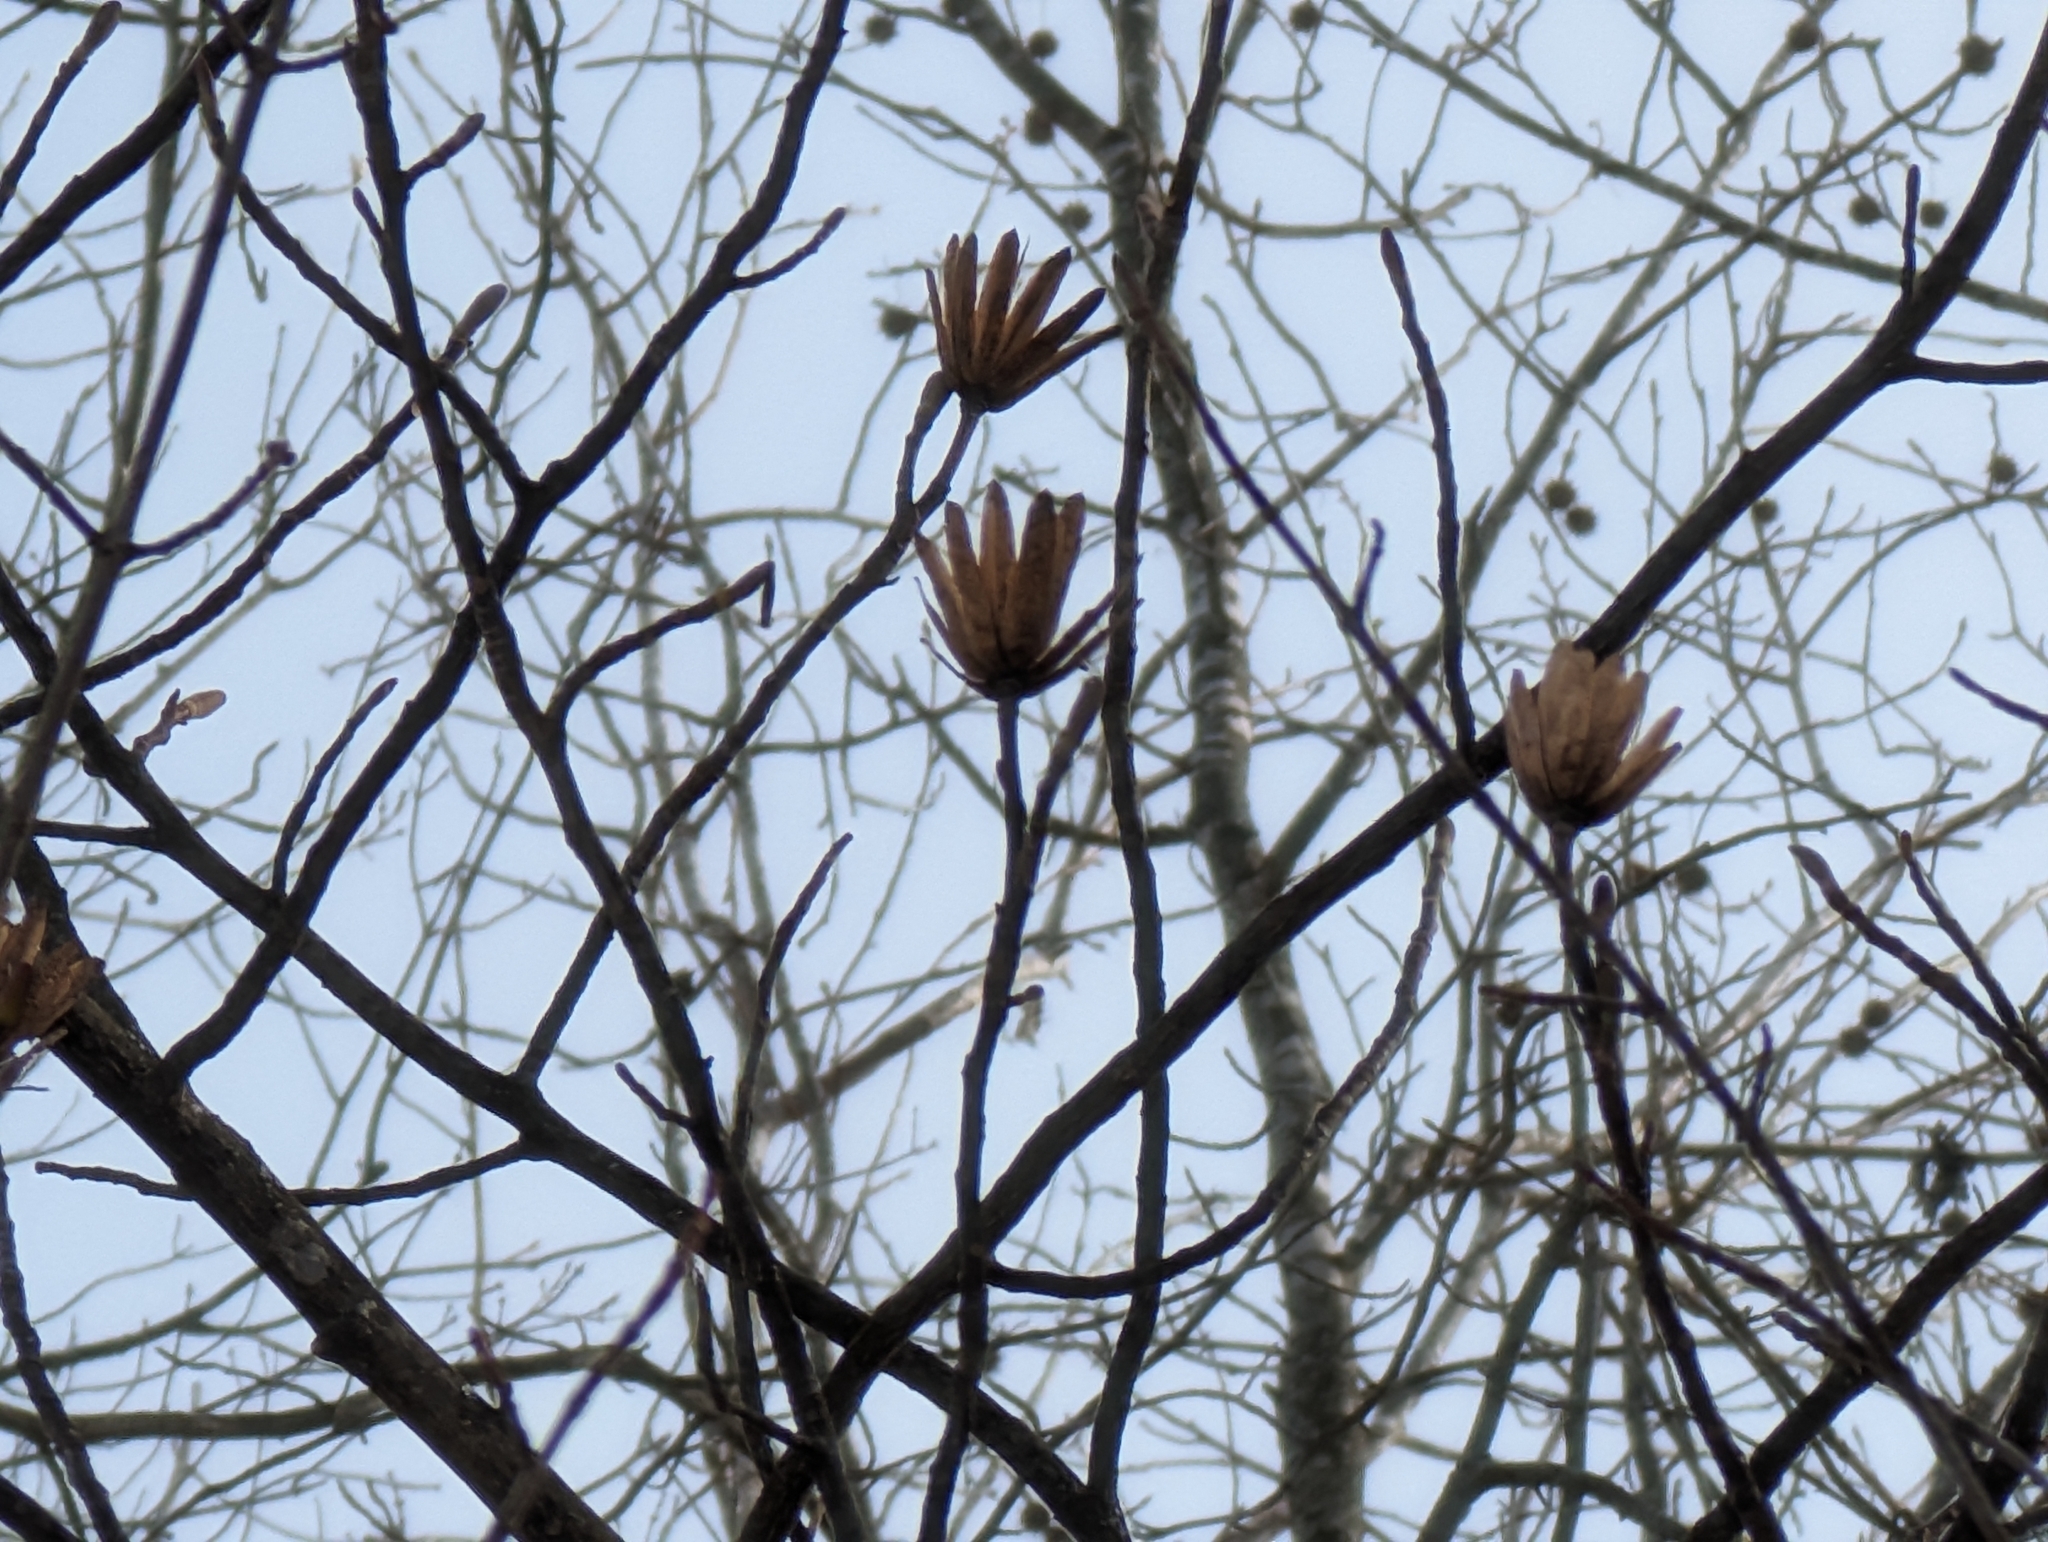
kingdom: Plantae
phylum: Tracheophyta
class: Magnoliopsida
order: Magnoliales
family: Magnoliaceae
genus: Liriodendron
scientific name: Liriodendron tulipifera
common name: Tulip tree
